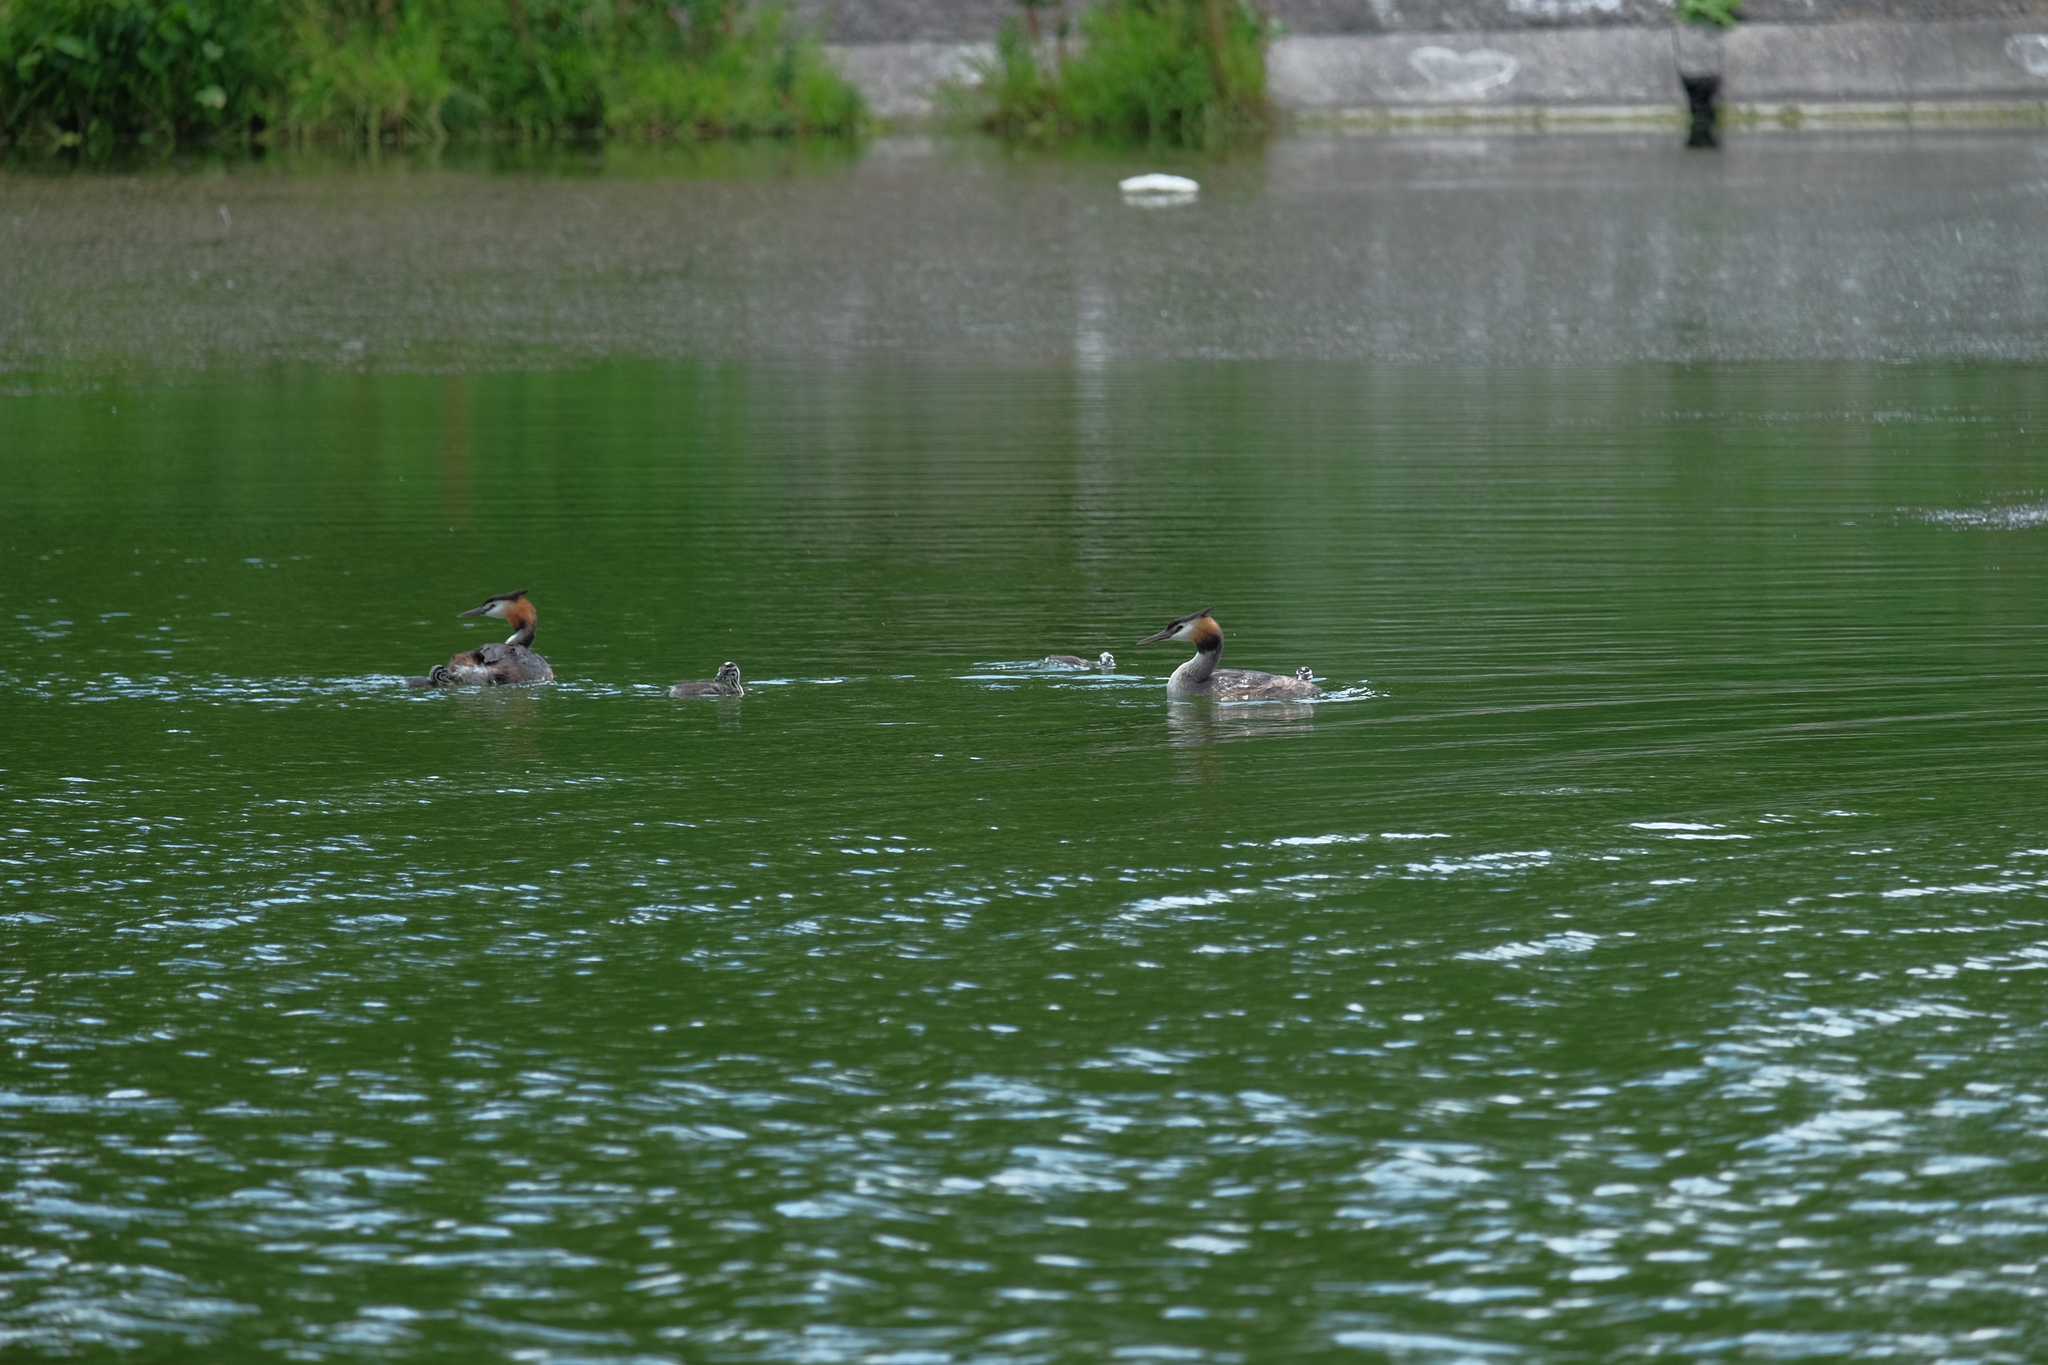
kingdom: Animalia
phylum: Chordata
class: Aves
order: Podicipediformes
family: Podicipedidae
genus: Podiceps
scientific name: Podiceps cristatus
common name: Great crested grebe
